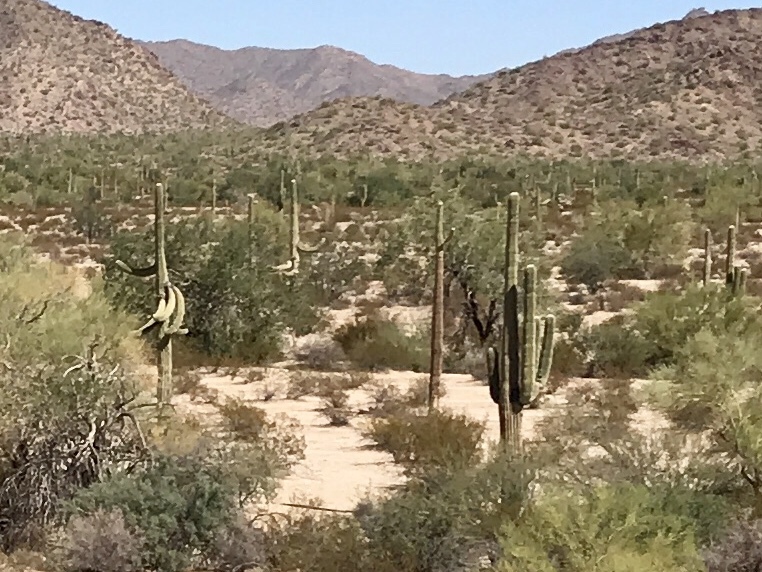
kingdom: Plantae
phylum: Tracheophyta
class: Magnoliopsida
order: Caryophyllales
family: Cactaceae
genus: Carnegiea
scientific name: Carnegiea gigantea
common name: Saguaro
